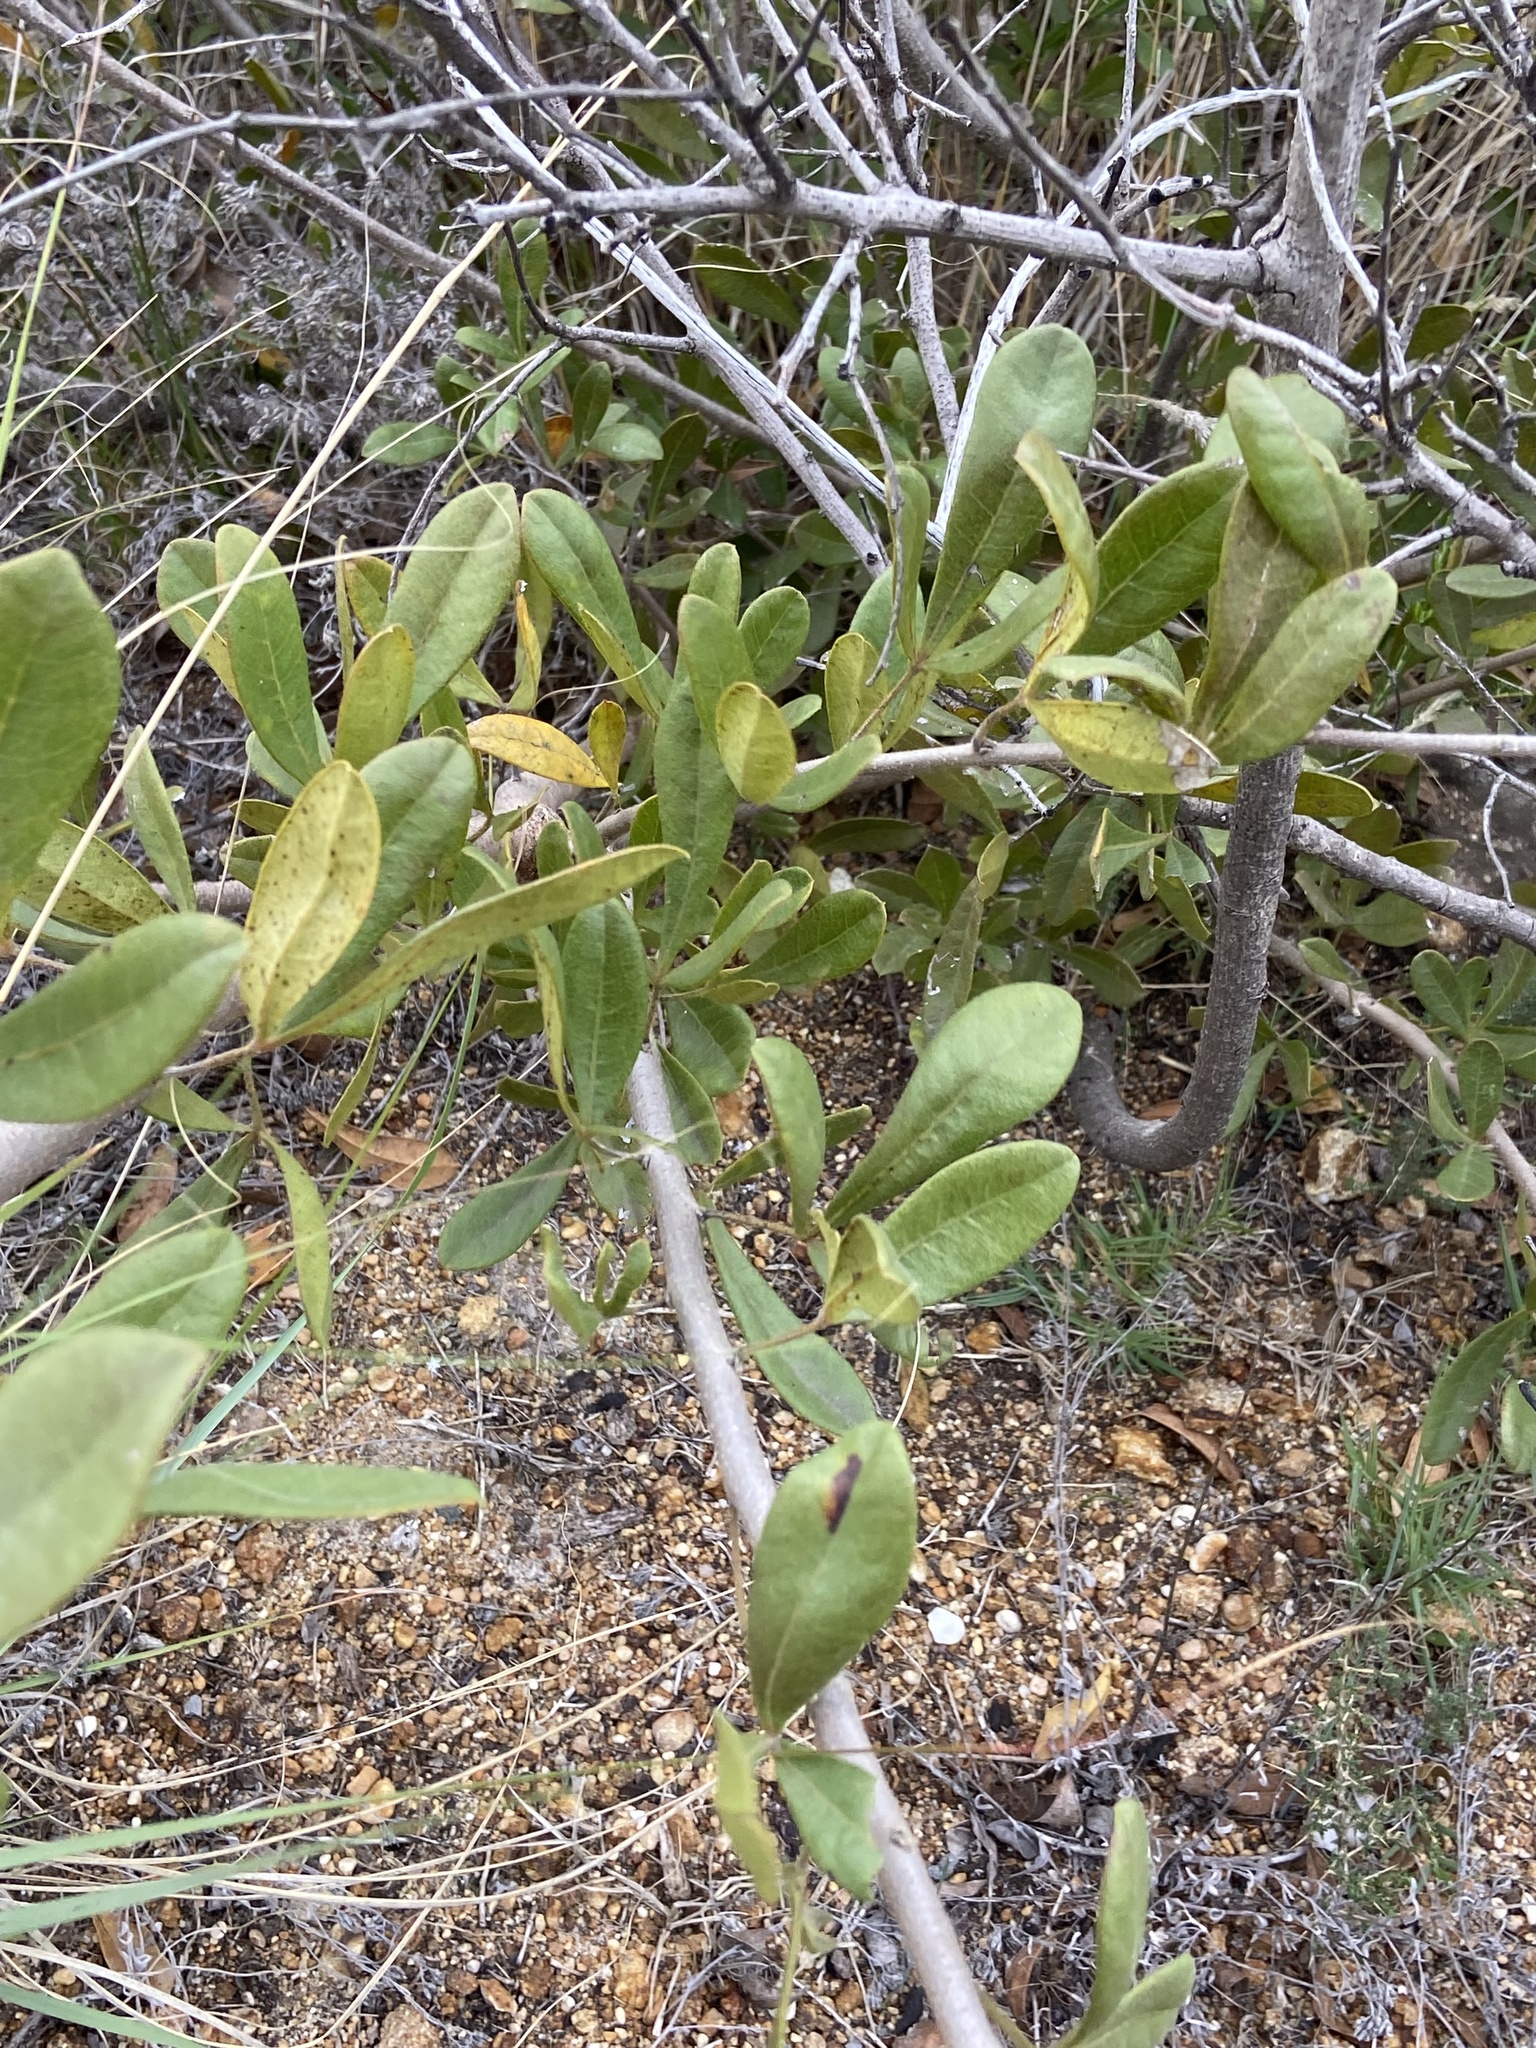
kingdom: Plantae
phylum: Tracheophyta
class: Magnoliopsida
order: Sapindales
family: Anacardiaceae
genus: Searsia
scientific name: Searsia laevigata
